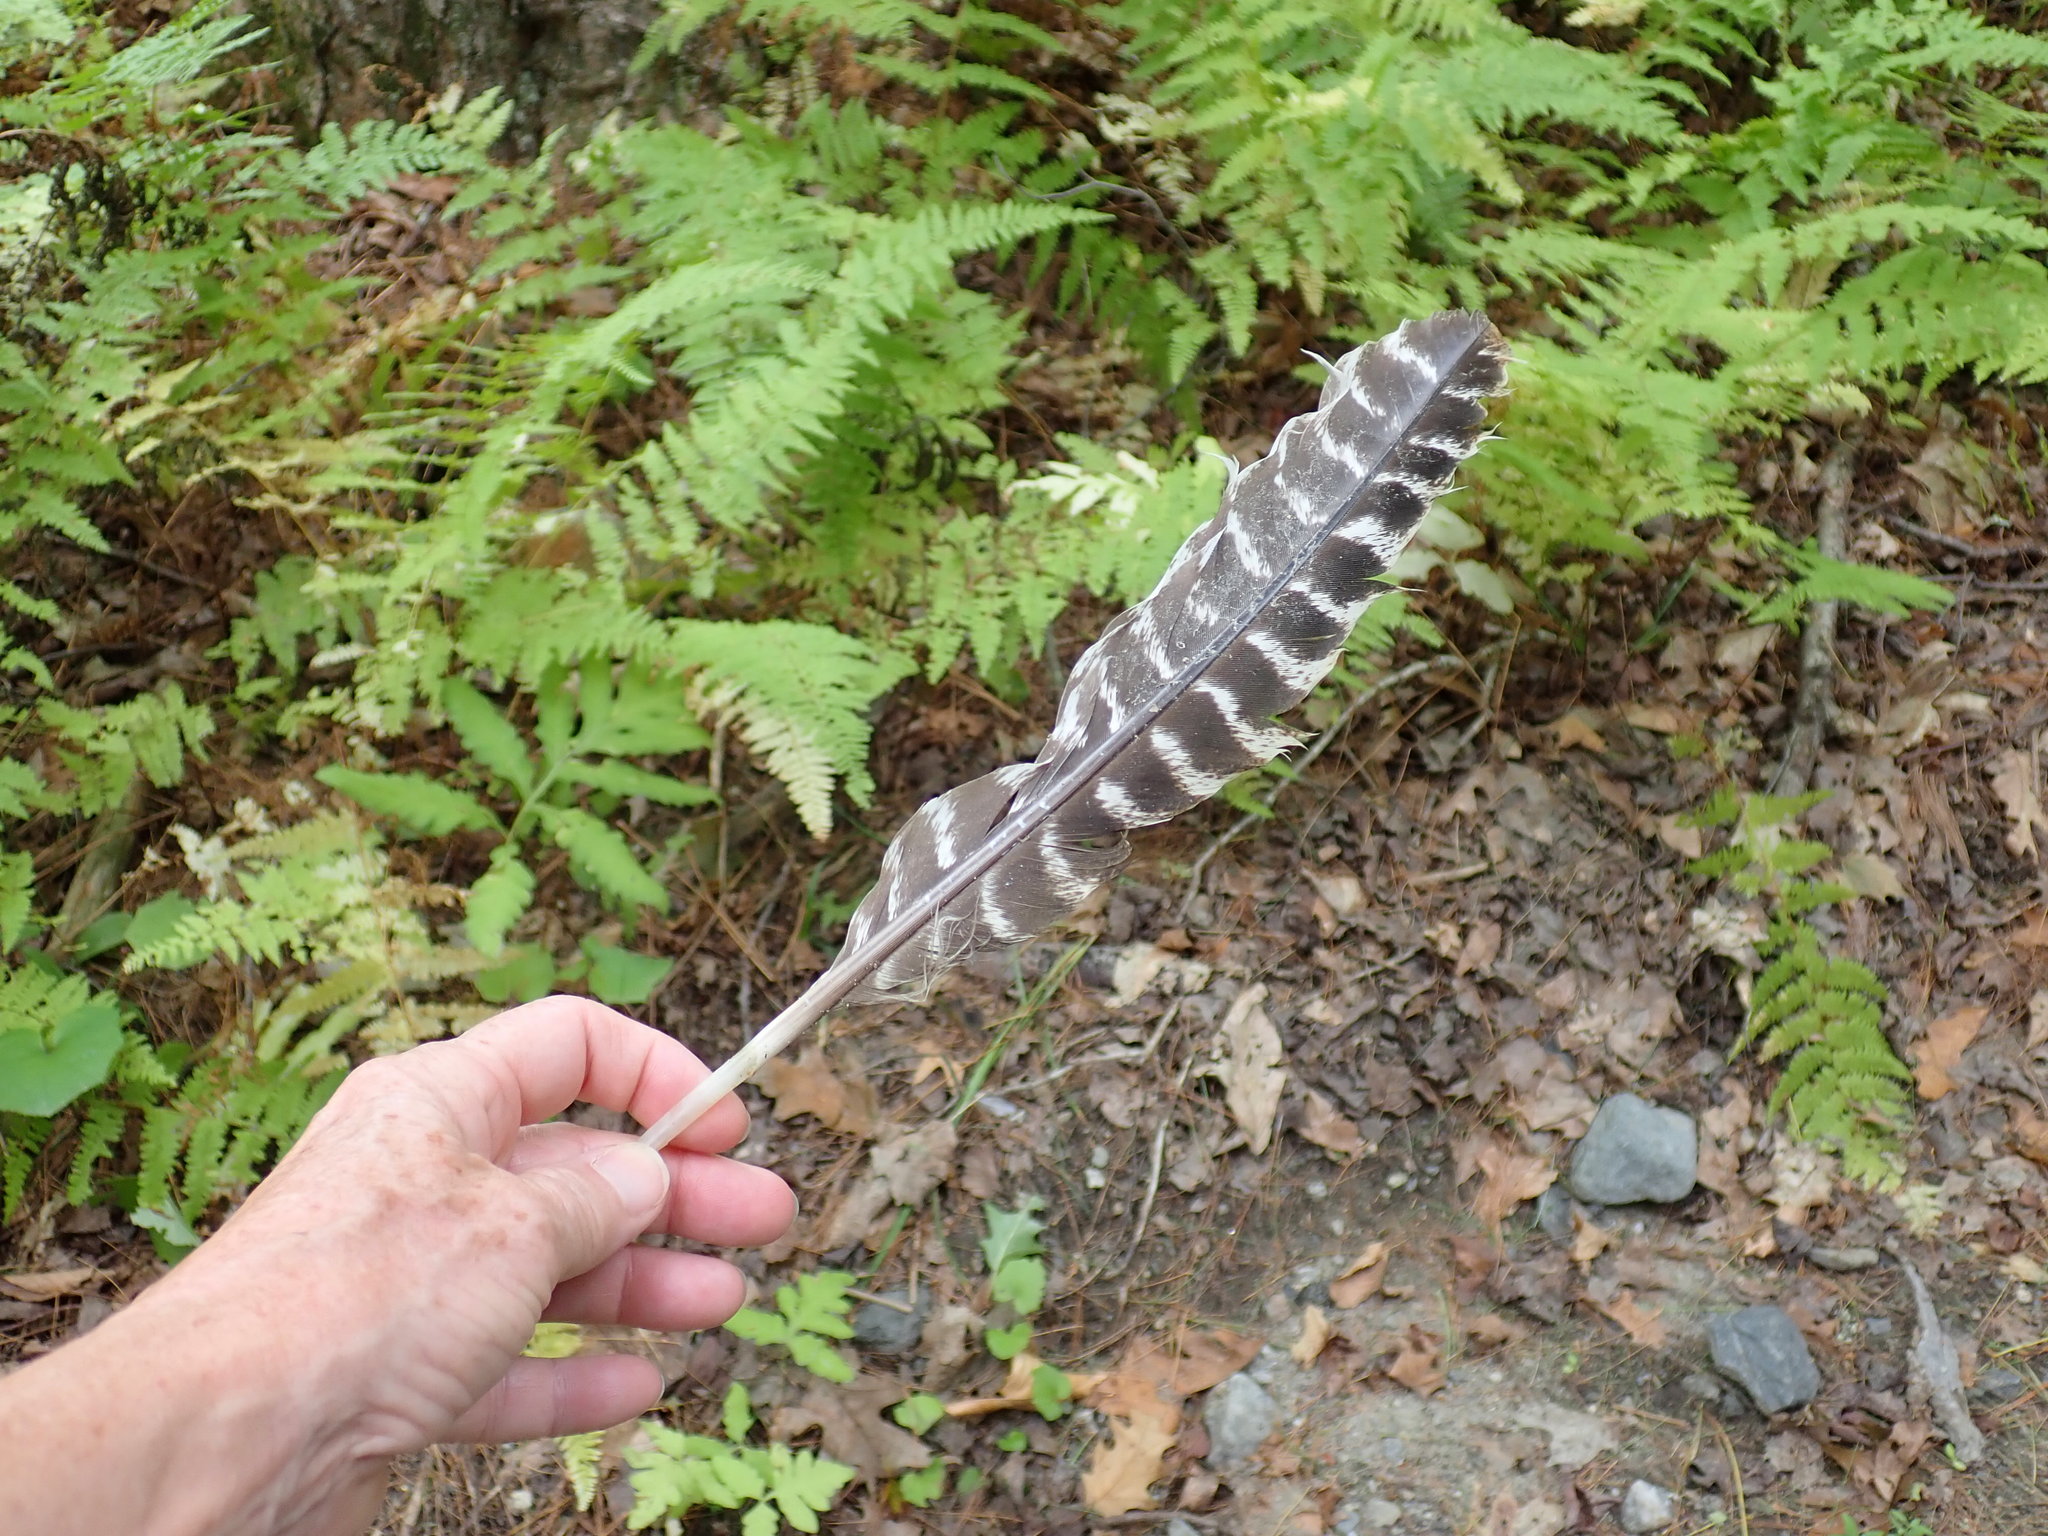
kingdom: Animalia
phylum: Chordata
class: Aves
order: Galliformes
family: Phasianidae
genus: Meleagris
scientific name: Meleagris gallopavo
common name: Wild turkey
